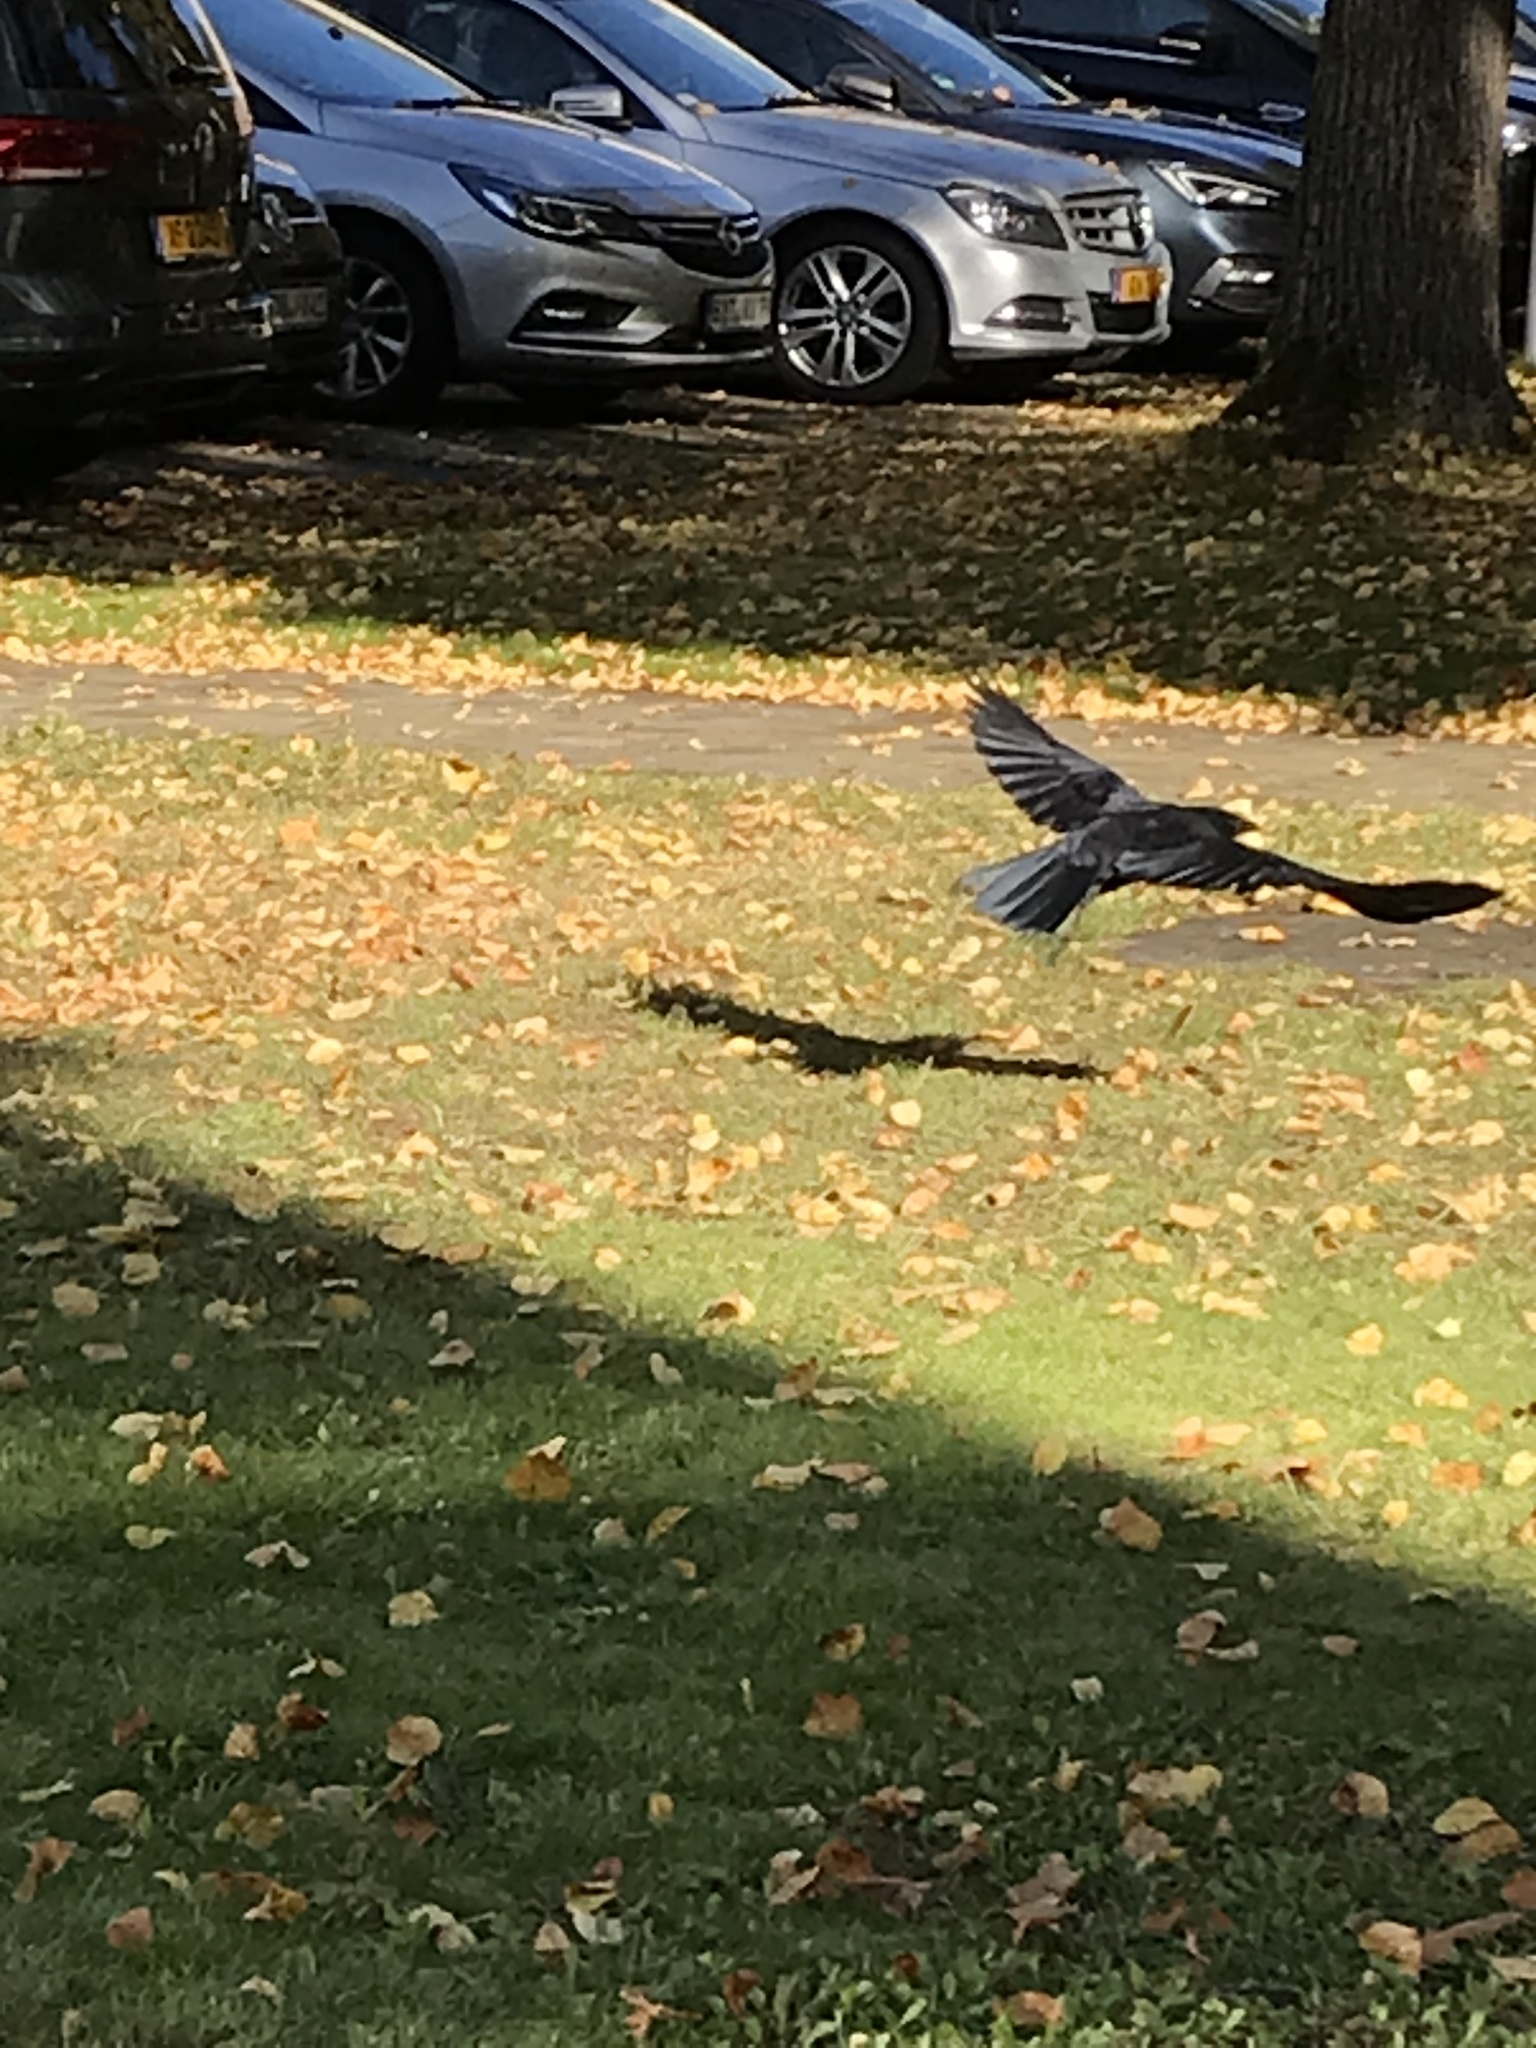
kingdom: Animalia
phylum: Chordata
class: Aves
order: Passeriformes
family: Corvidae
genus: Corvus
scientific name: Corvus corone
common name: Carrion crow
